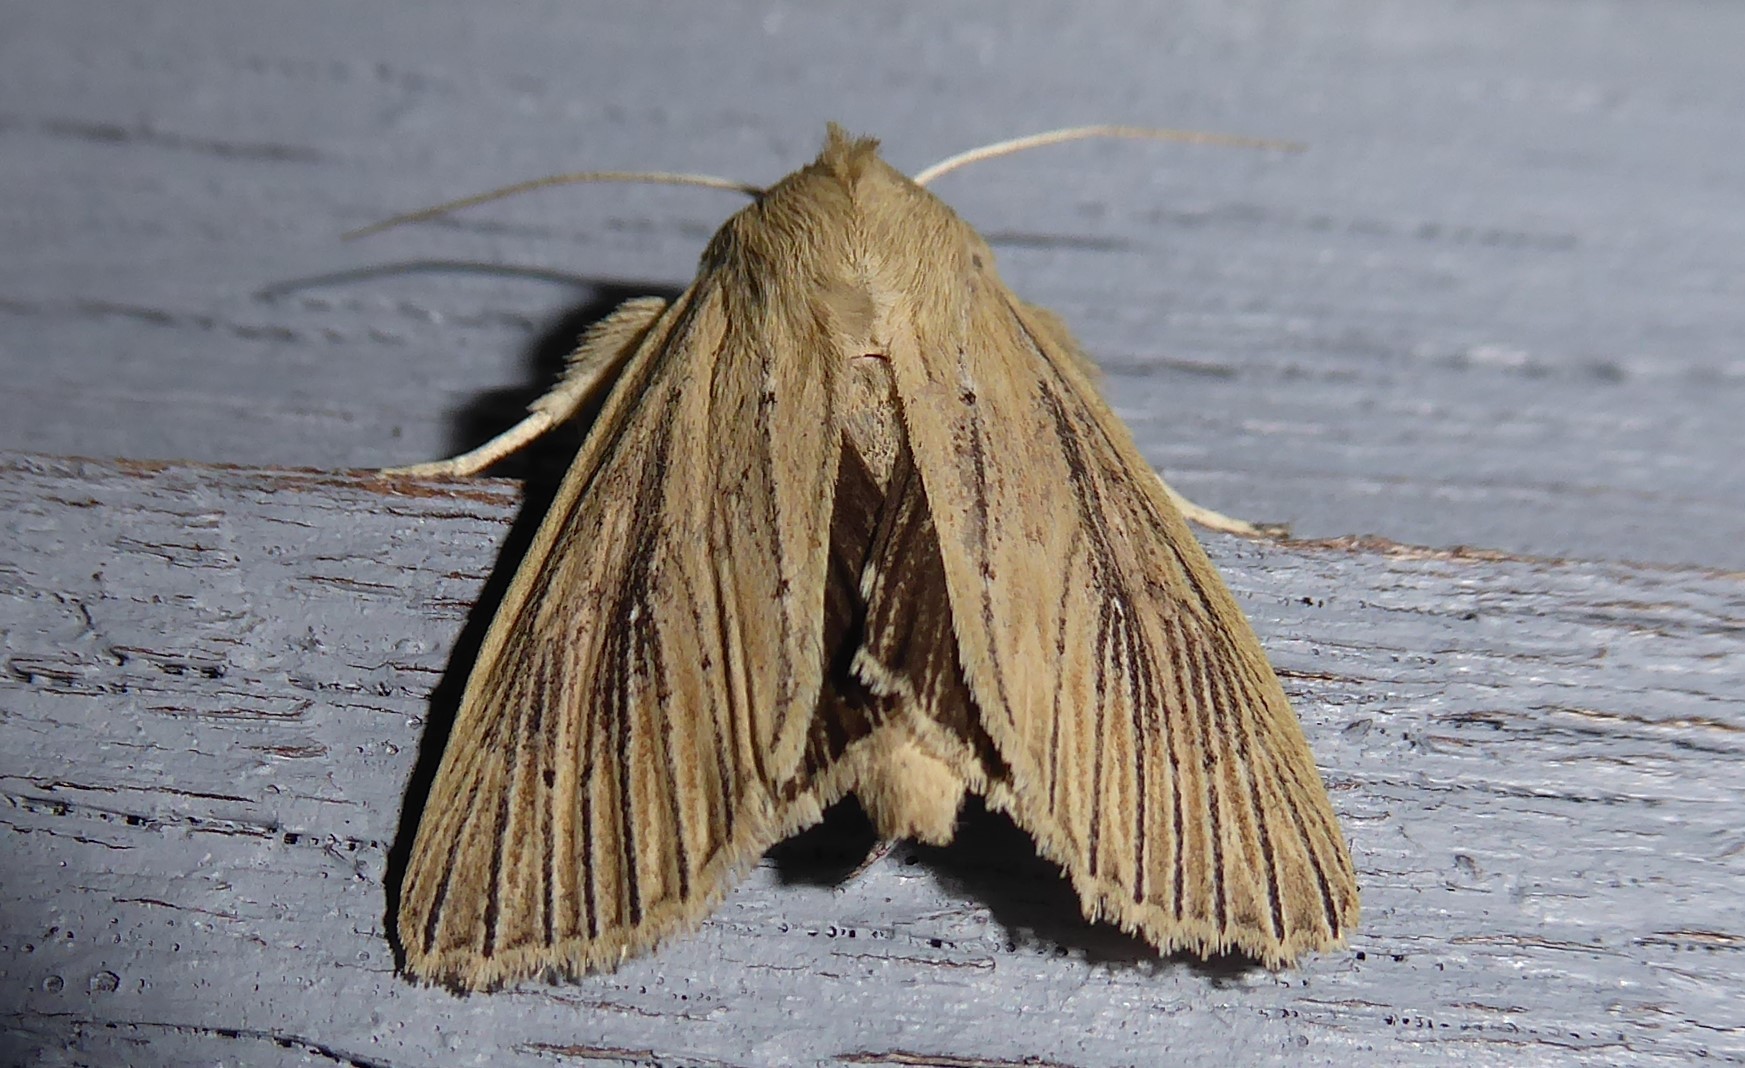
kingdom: Animalia
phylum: Arthropoda
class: Insecta
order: Lepidoptera
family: Noctuidae
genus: Ichneutica
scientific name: Ichneutica arotis
